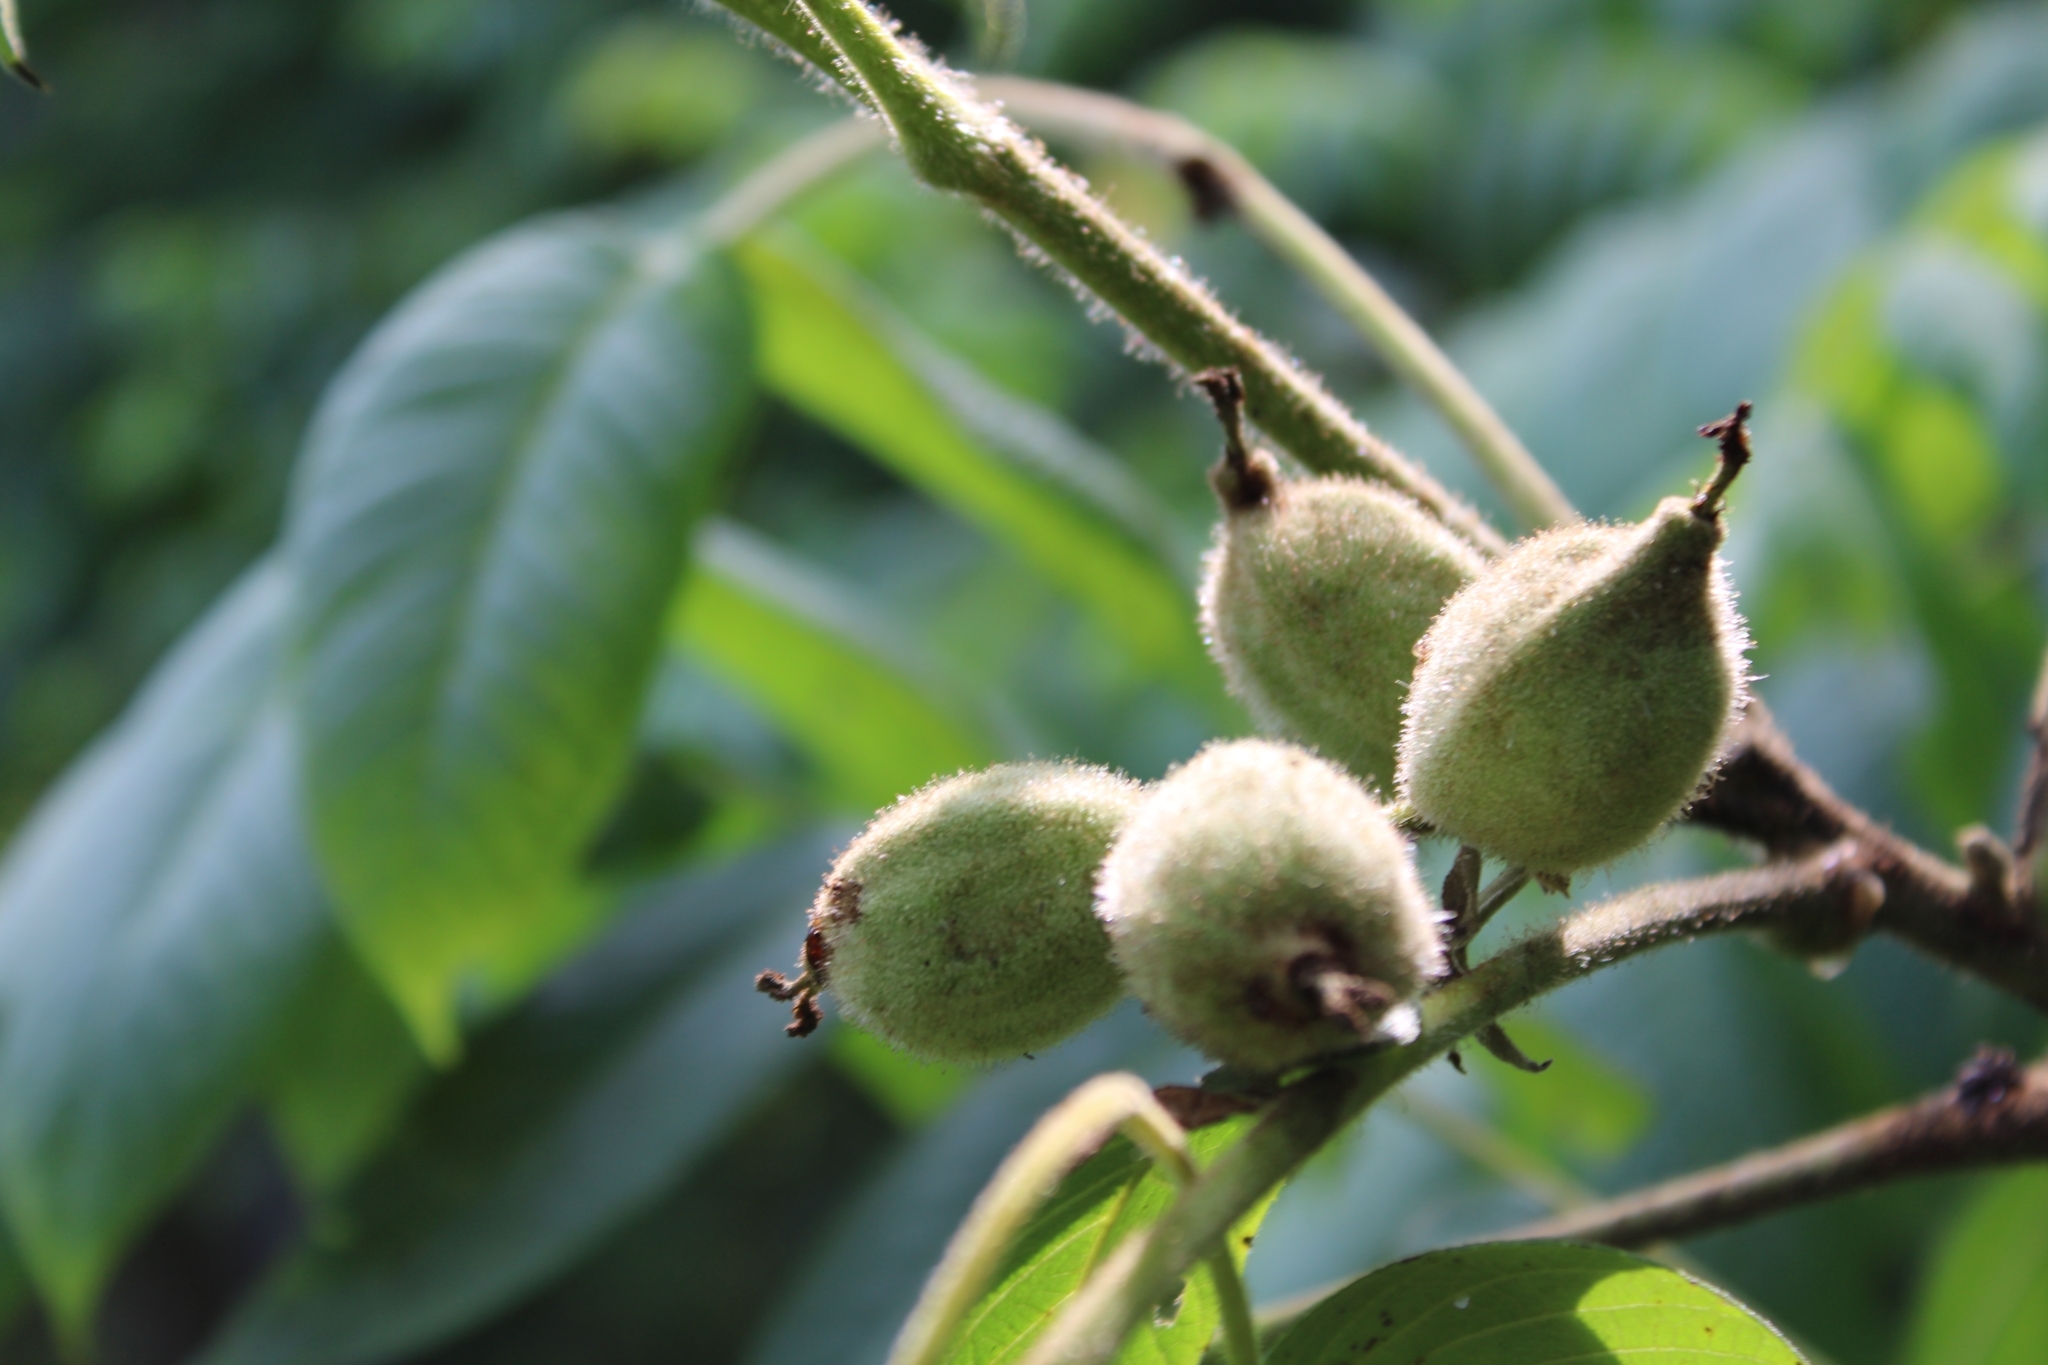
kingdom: Plantae
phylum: Tracheophyta
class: Magnoliopsida
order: Fagales
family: Juglandaceae
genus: Juglans
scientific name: Juglans cinerea
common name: Butternut
